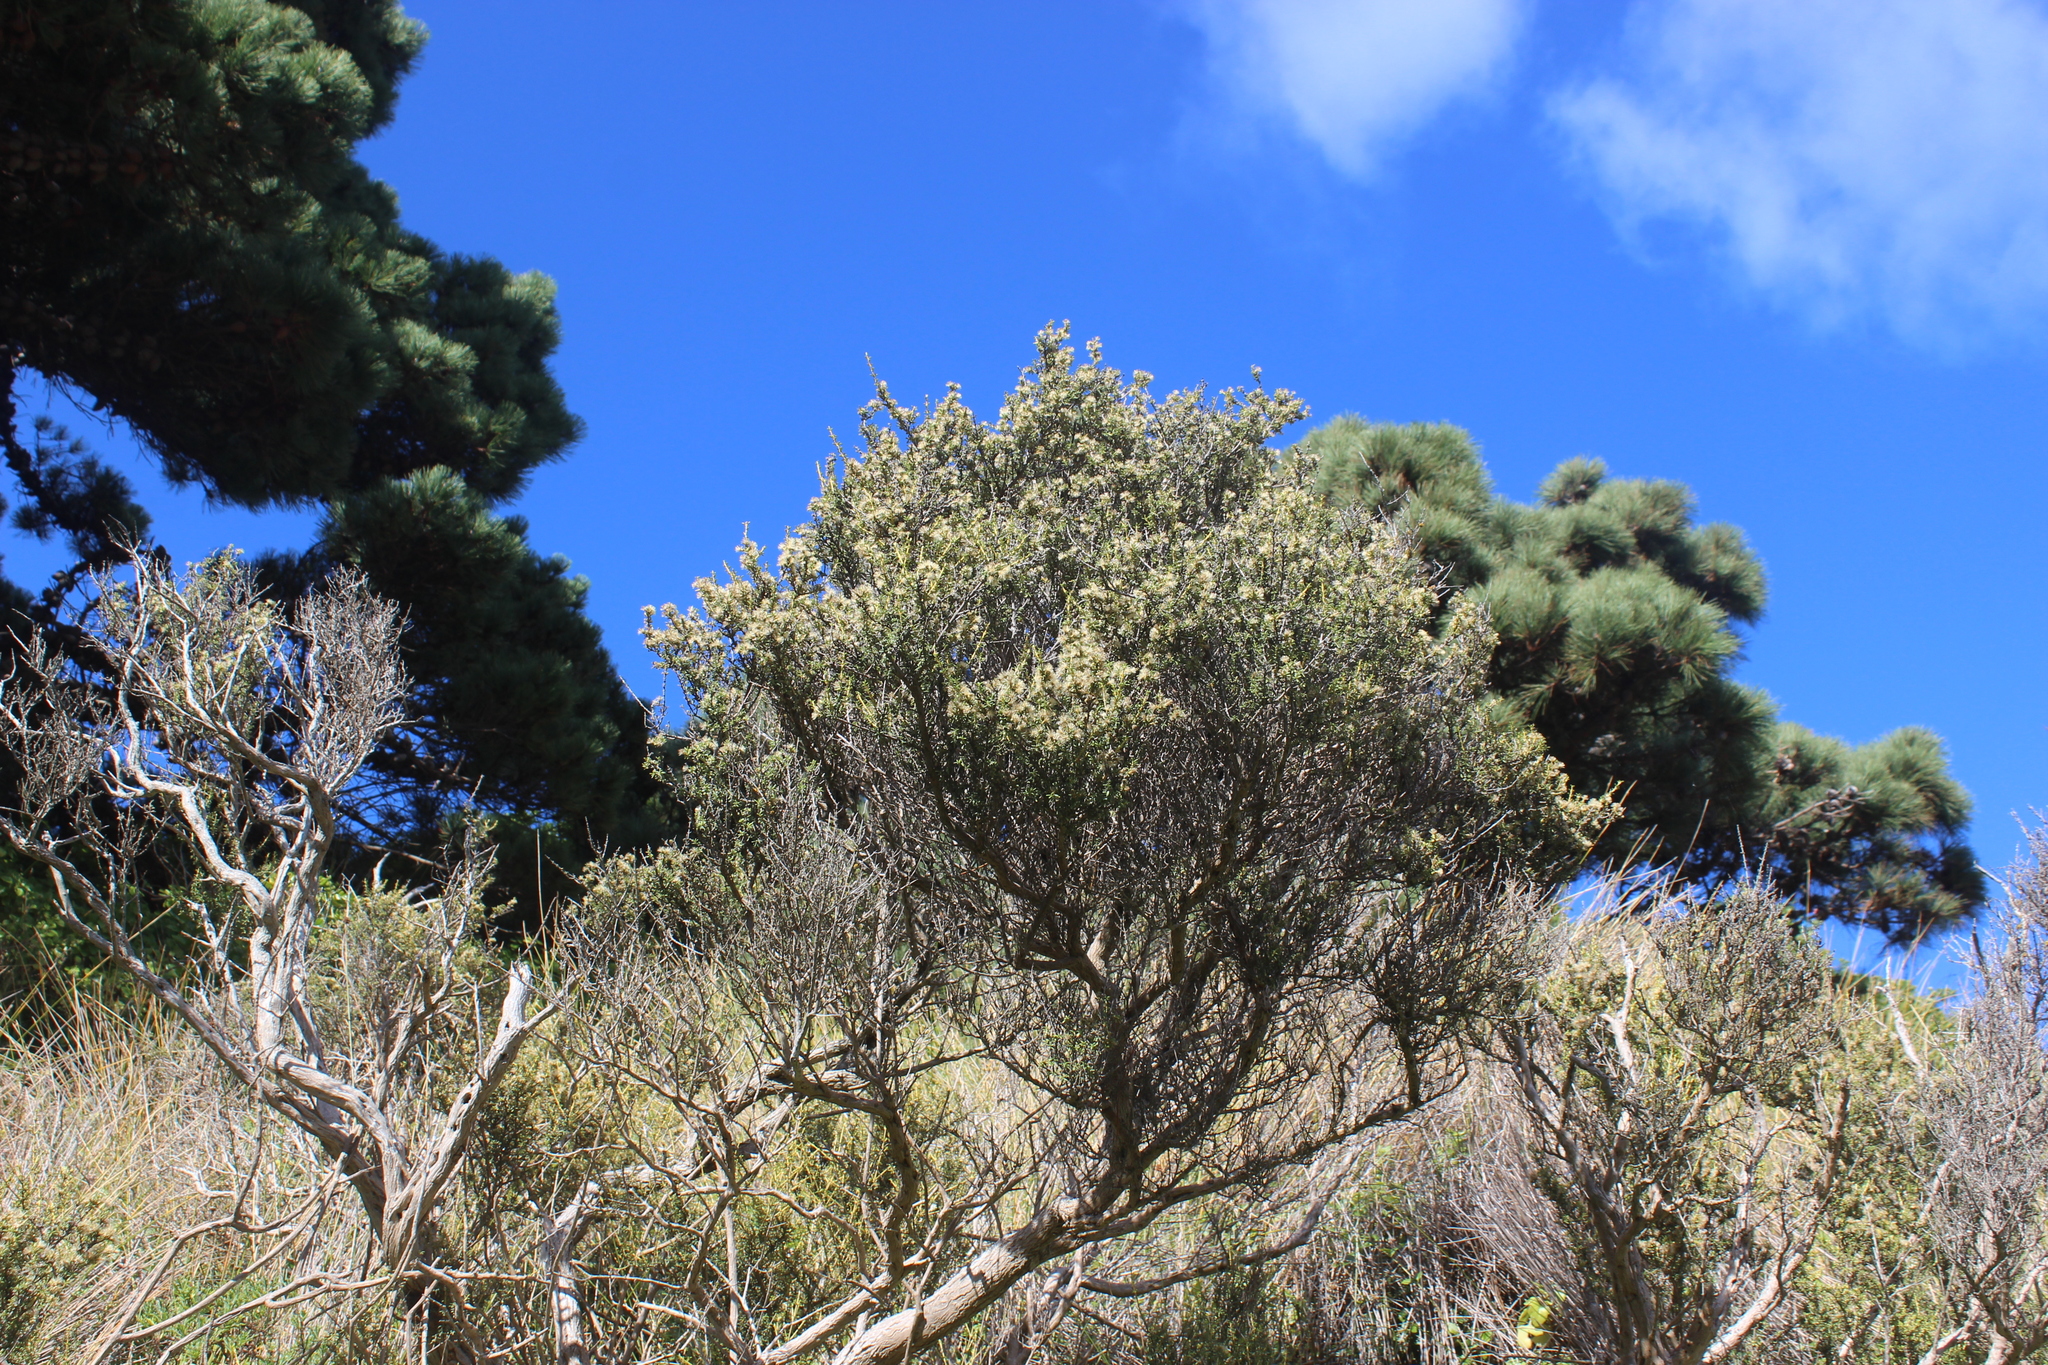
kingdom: Plantae
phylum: Tracheophyta
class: Magnoliopsida
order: Asterales
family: Asteraceae
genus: Olearia
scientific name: Olearia solandri
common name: Coastal daisybush
